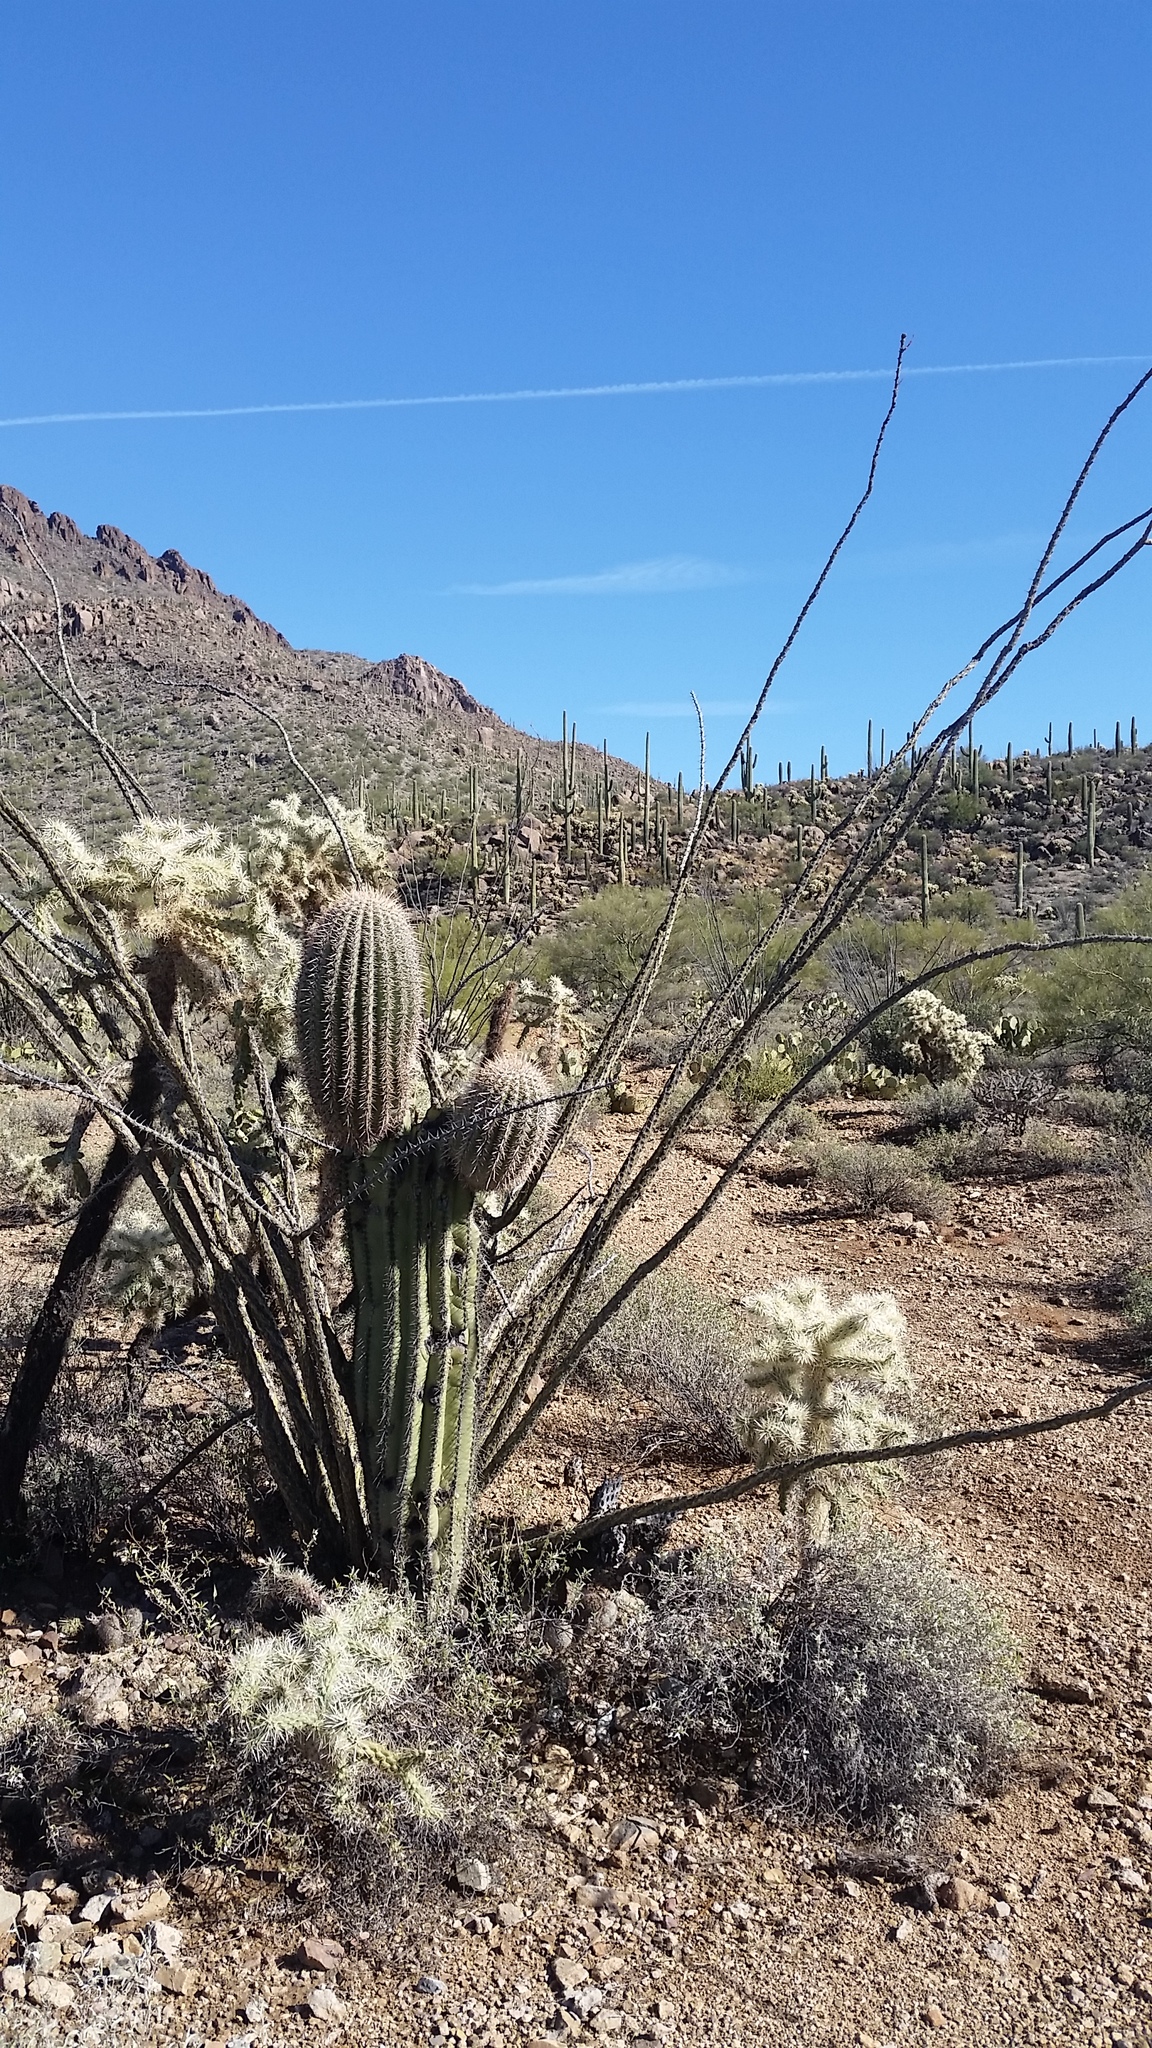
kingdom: Plantae
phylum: Tracheophyta
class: Magnoliopsida
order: Caryophyllales
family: Cactaceae
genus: Carnegiea
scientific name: Carnegiea gigantea
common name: Saguaro
